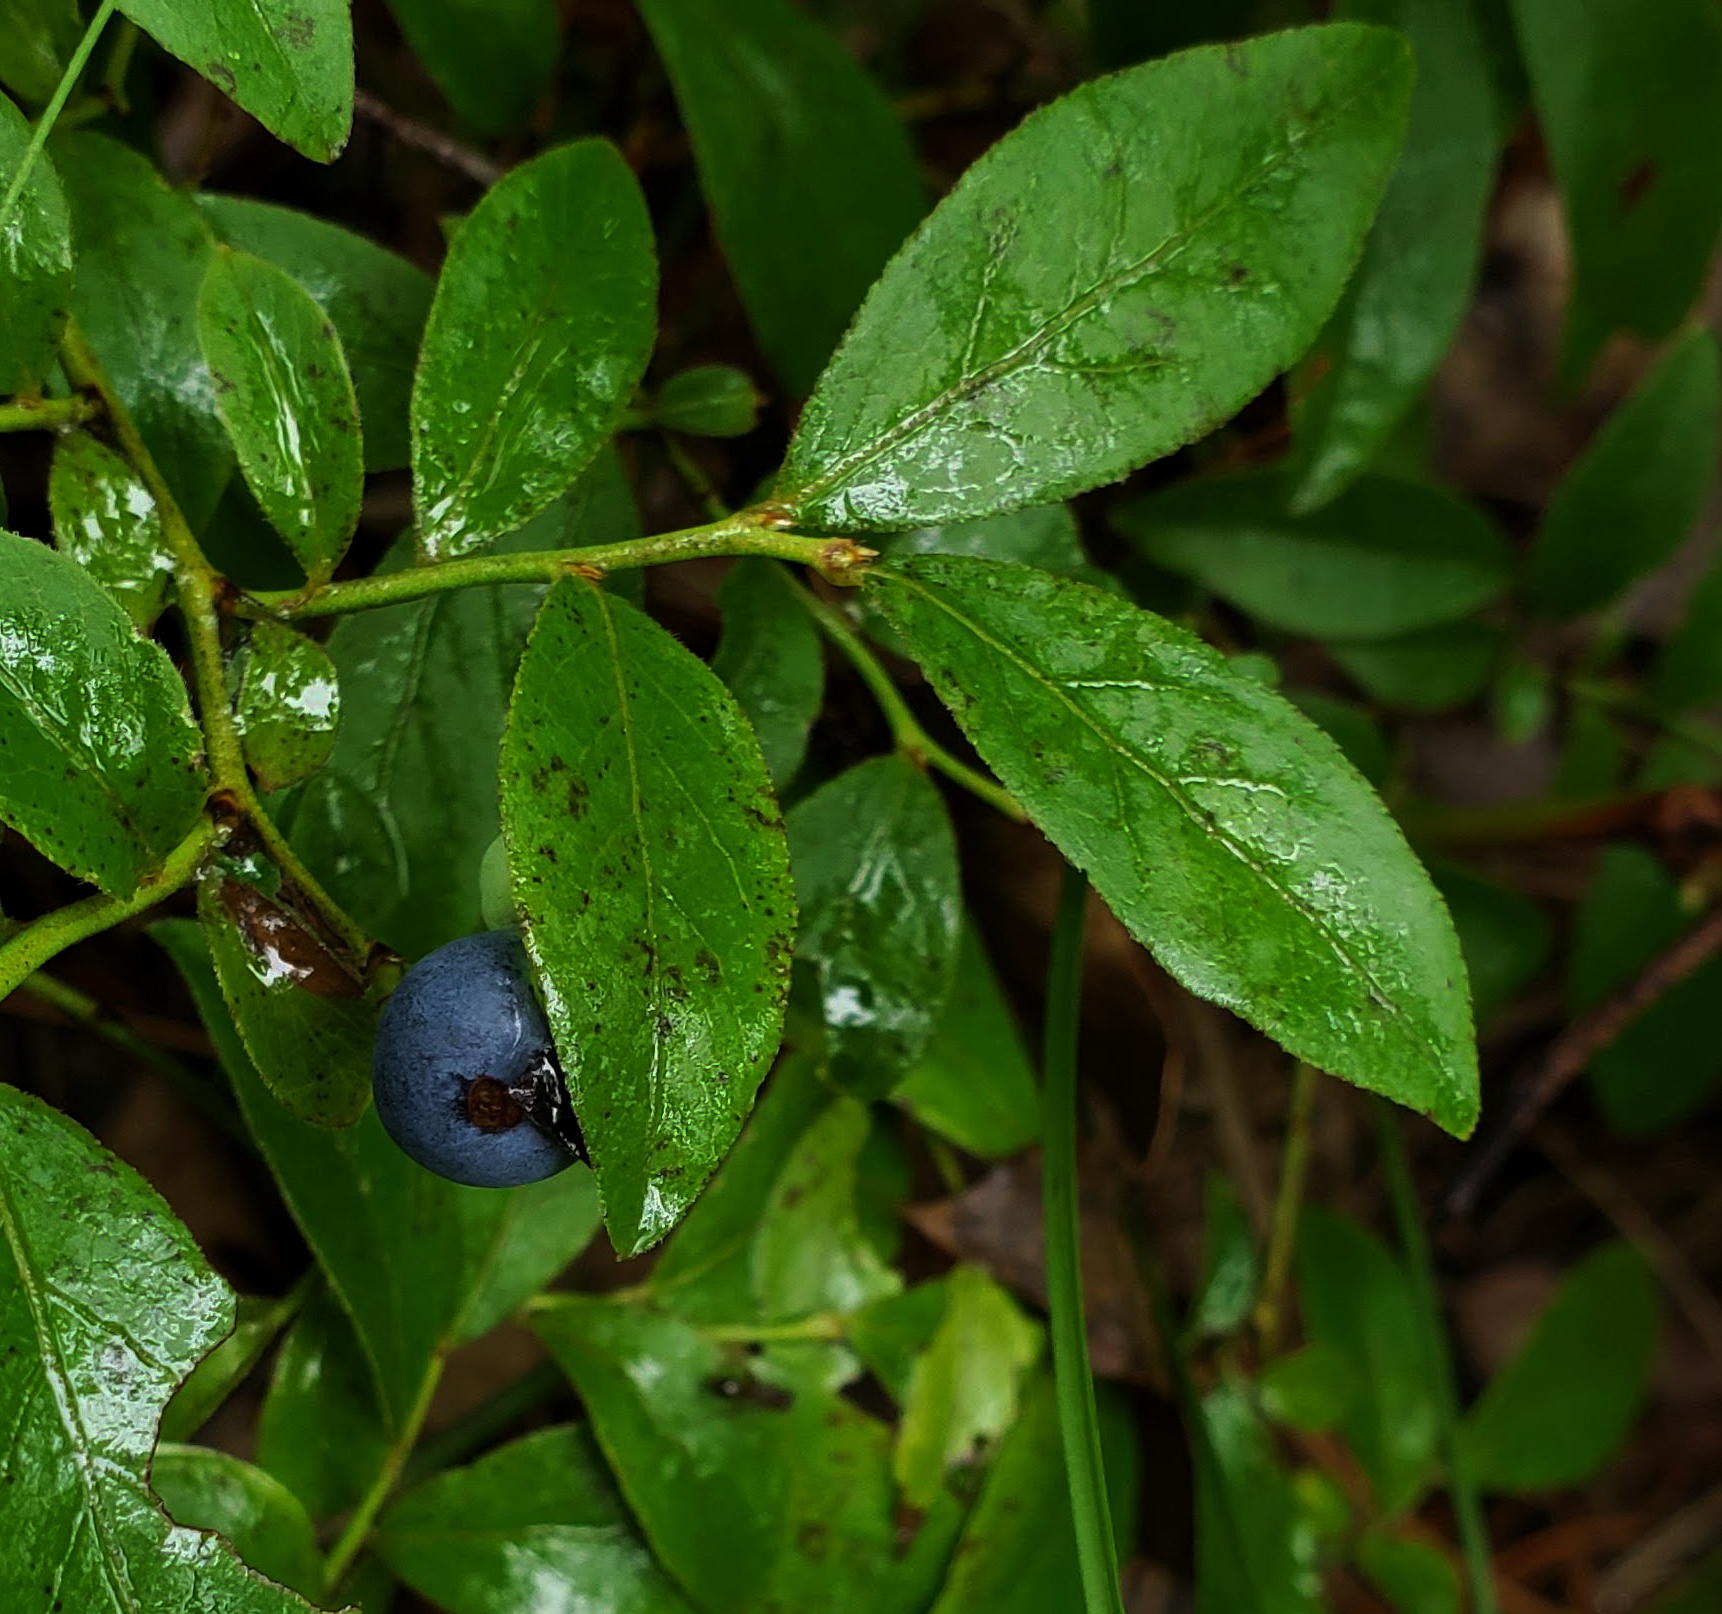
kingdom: Plantae
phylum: Tracheophyta
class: Magnoliopsida
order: Ericales
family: Ericaceae
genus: Vaccinium
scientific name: Vaccinium angustifolium
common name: Early lowbush blueberry
